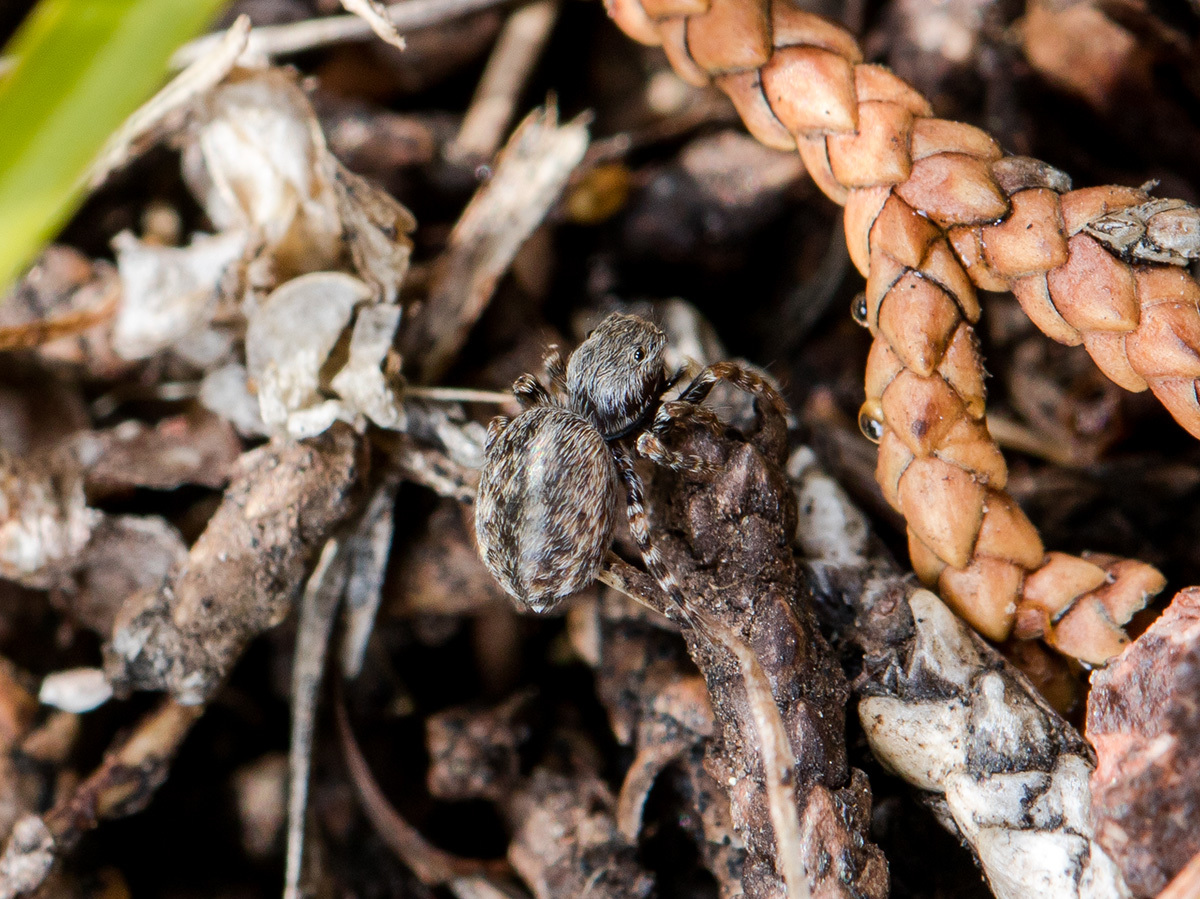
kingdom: Animalia
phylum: Arthropoda
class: Arachnida
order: Araneae
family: Salticidae
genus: Talavera
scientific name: Talavera petrensis
